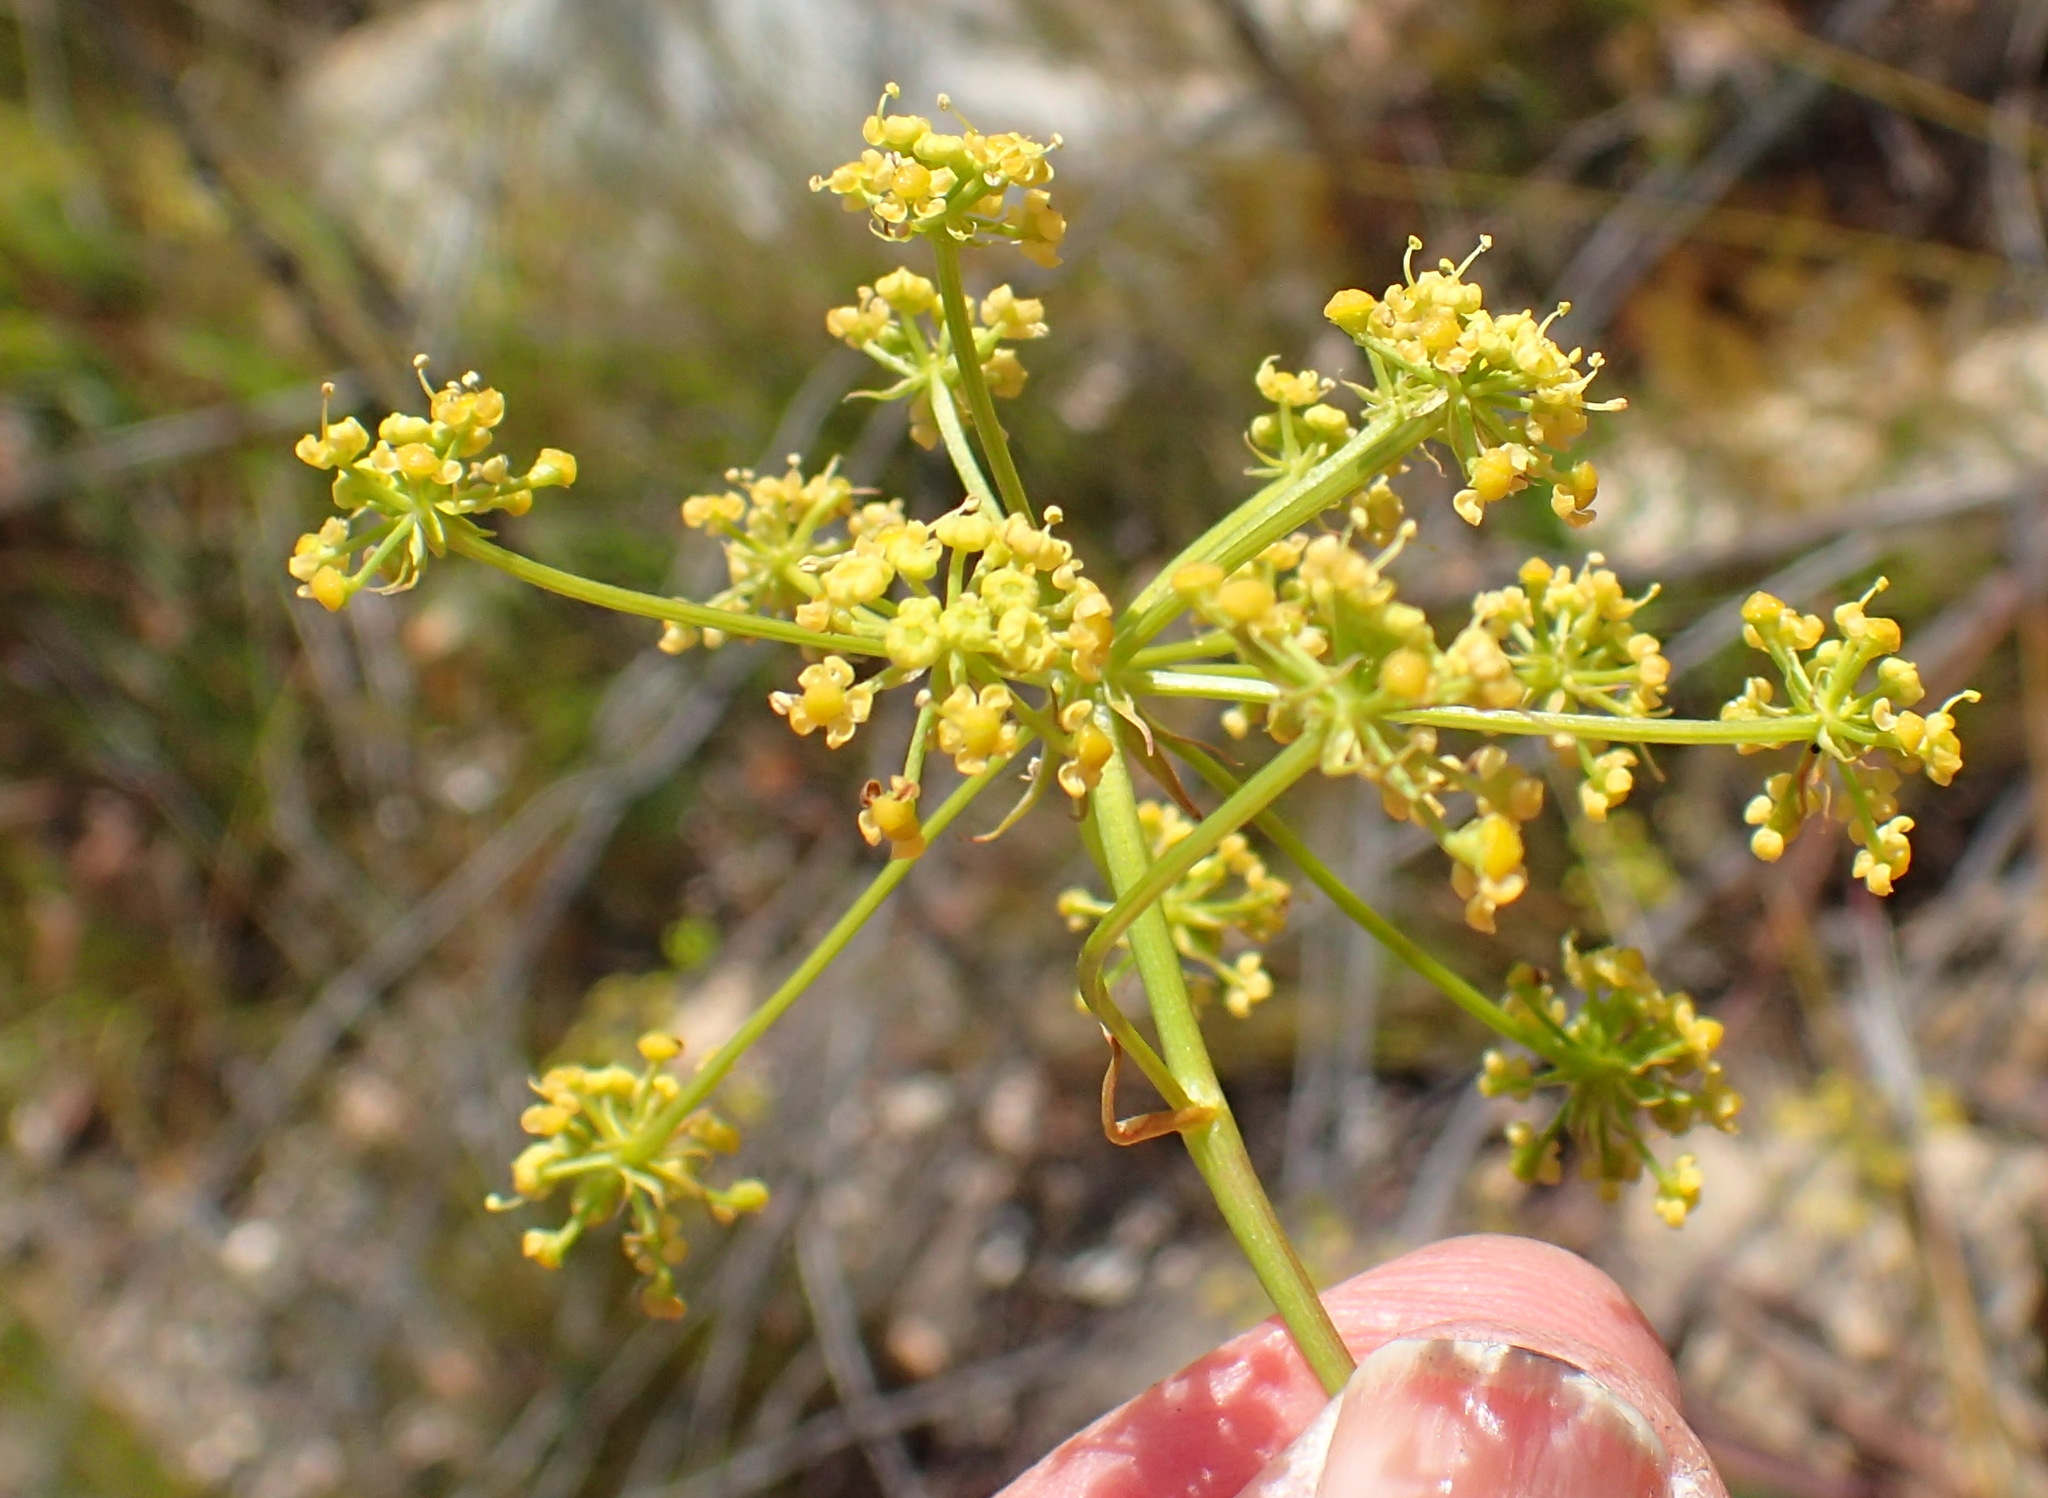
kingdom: Plantae
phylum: Tracheophyta
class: Magnoliopsida
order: Apiales
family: Apiaceae
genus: Notobubon
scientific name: Notobubon ferulaceum
